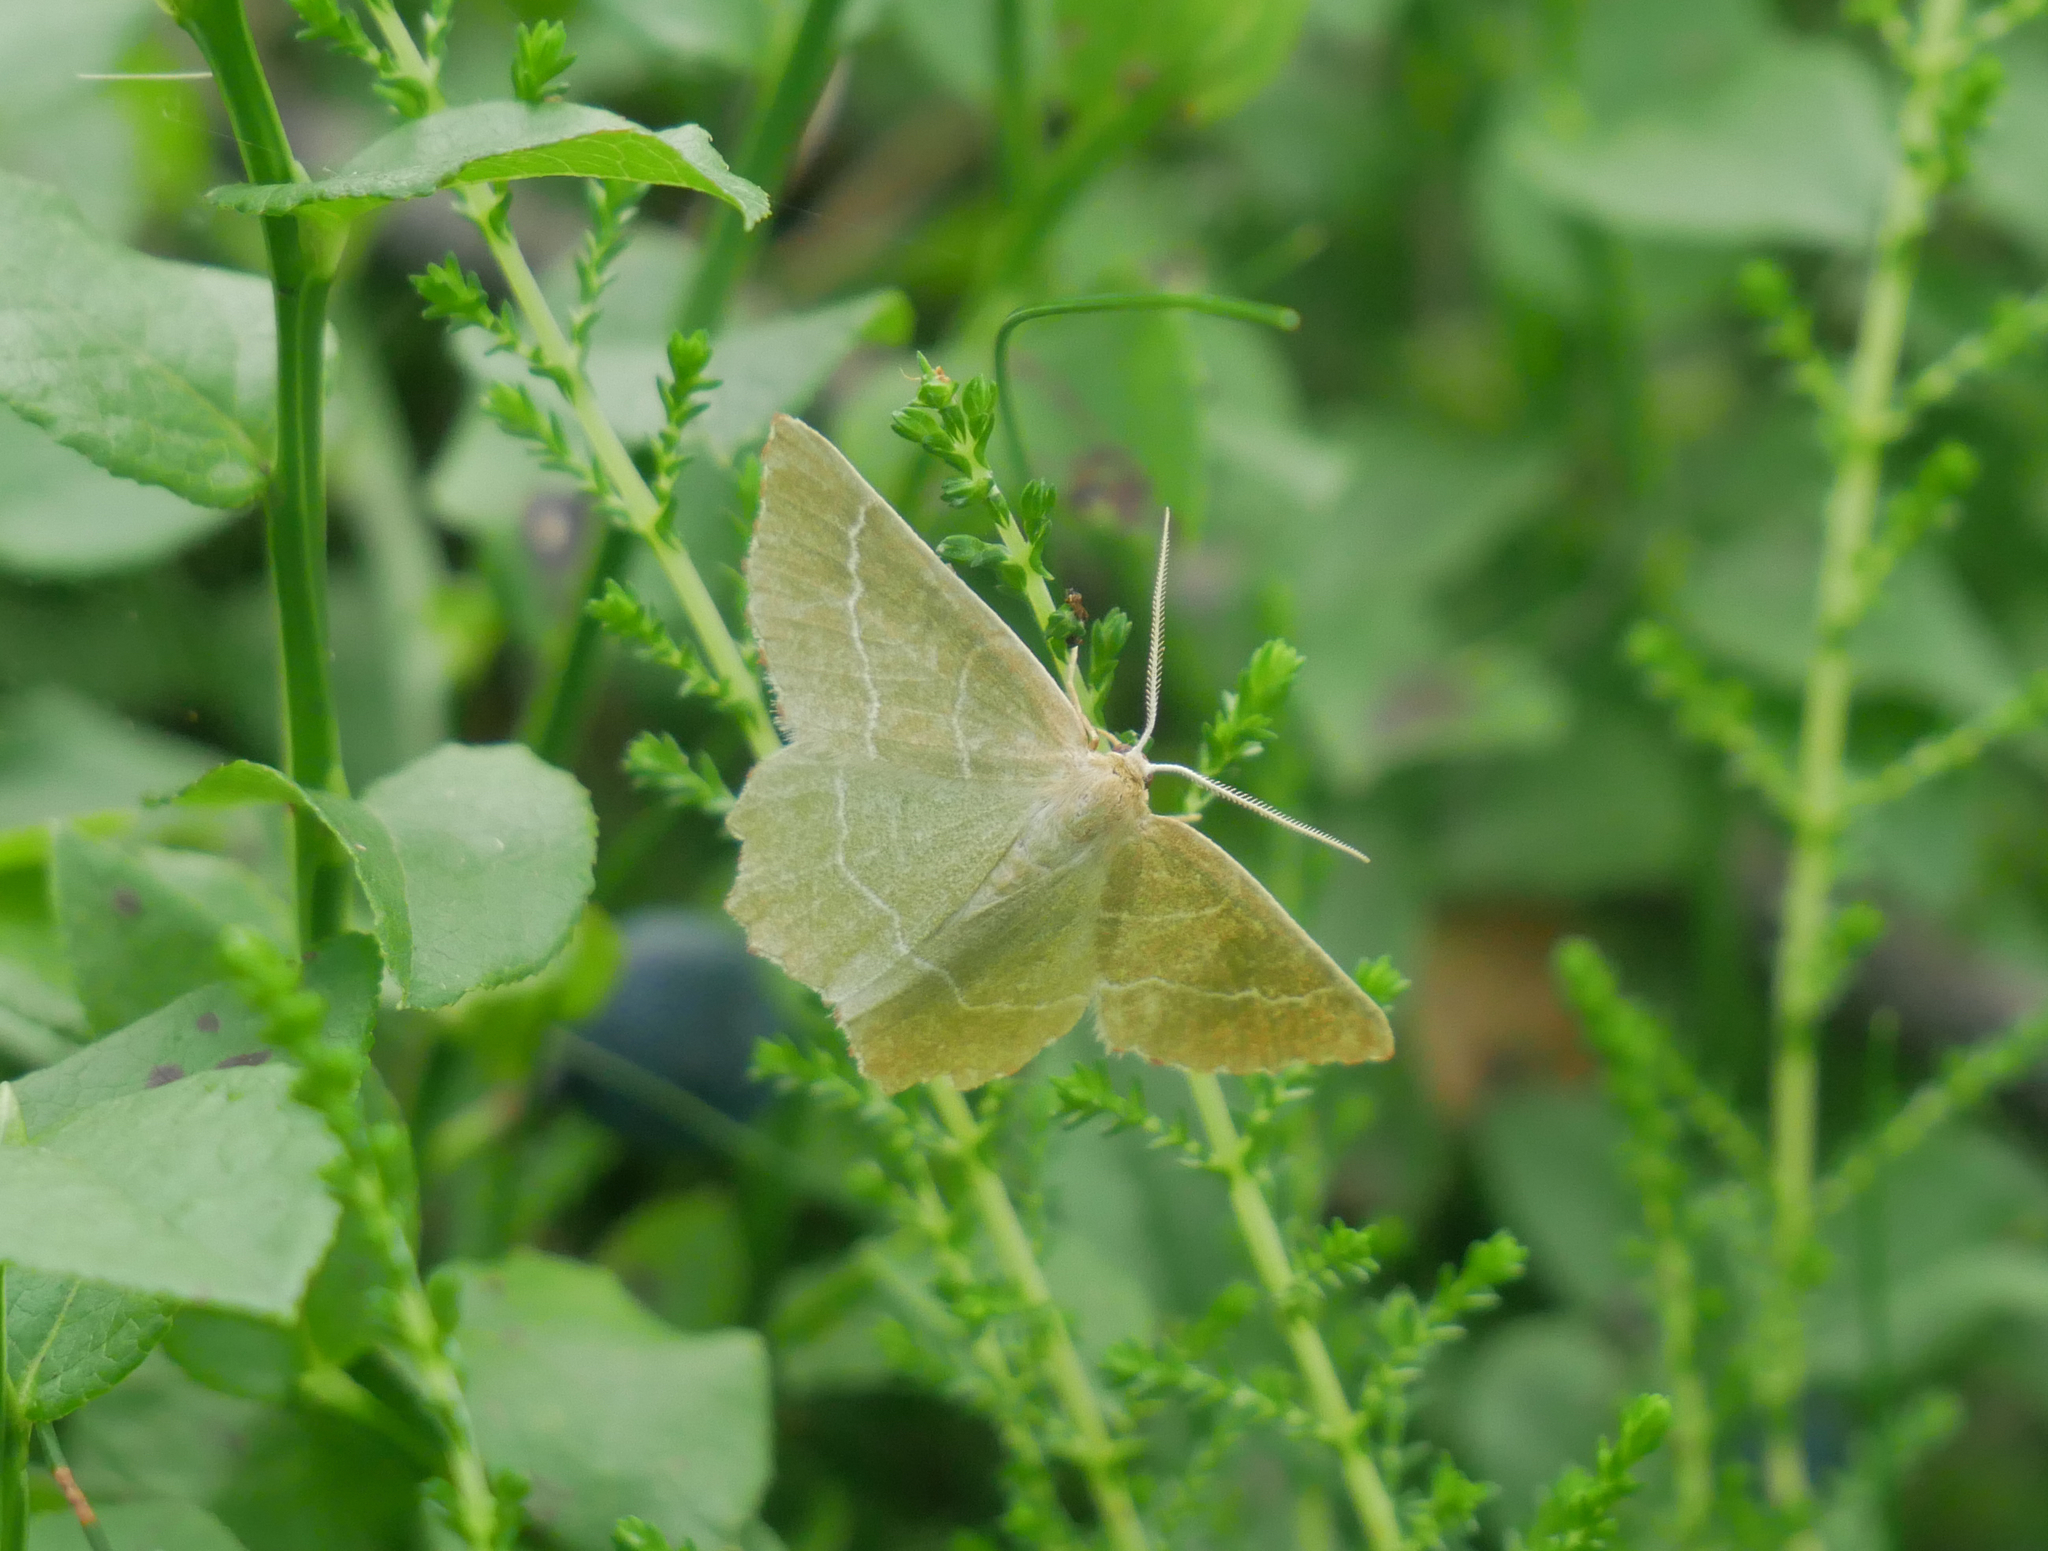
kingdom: Animalia
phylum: Arthropoda
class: Insecta
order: Lepidoptera
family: Geometridae
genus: Thalera
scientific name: Thalera fimbrialis
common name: Sussex emerald
